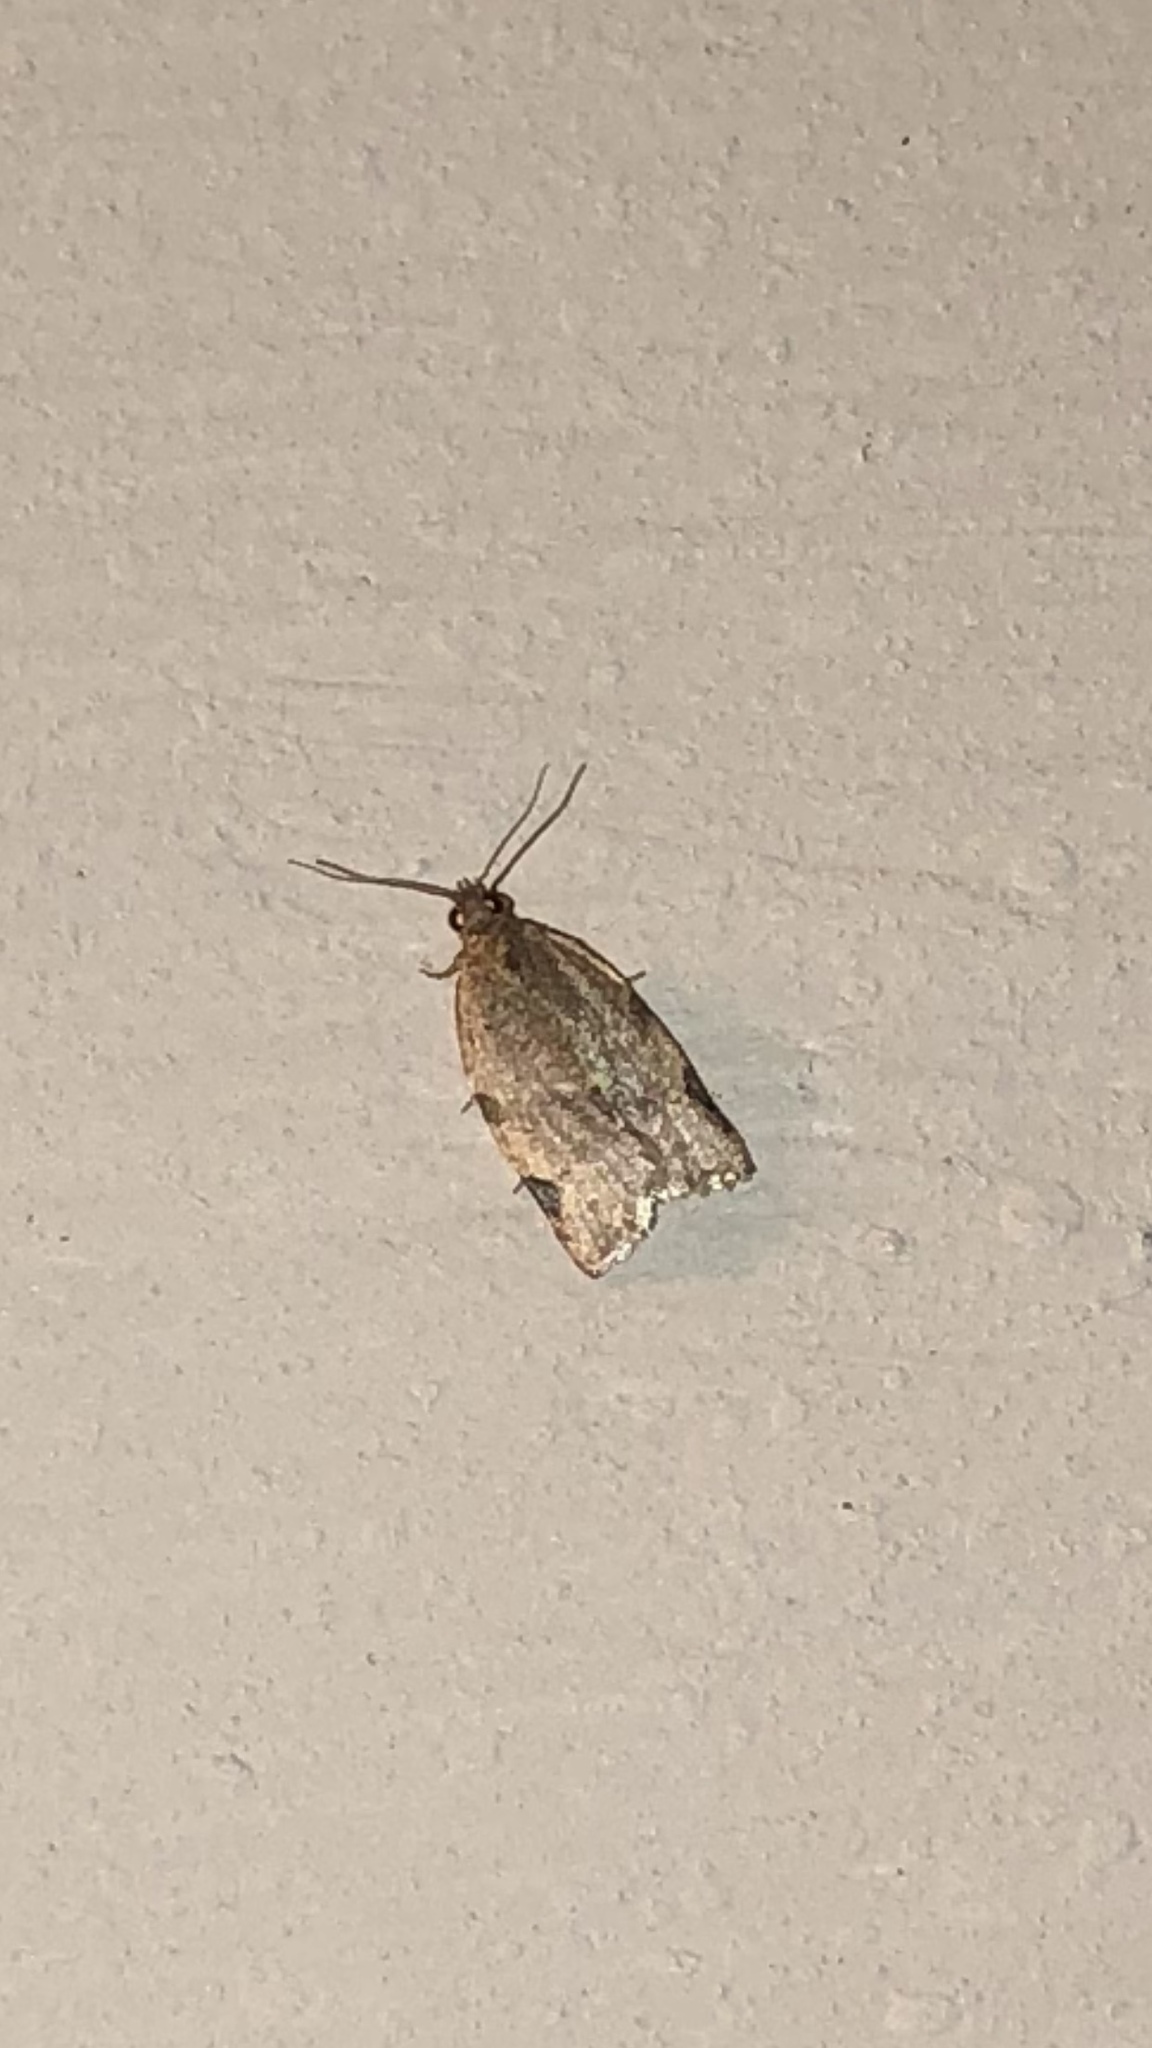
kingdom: Animalia
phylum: Arthropoda
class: Insecta
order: Lepidoptera
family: Tortricidae
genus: Clepsis
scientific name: Clepsis virescana
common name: Greenish apple moth
